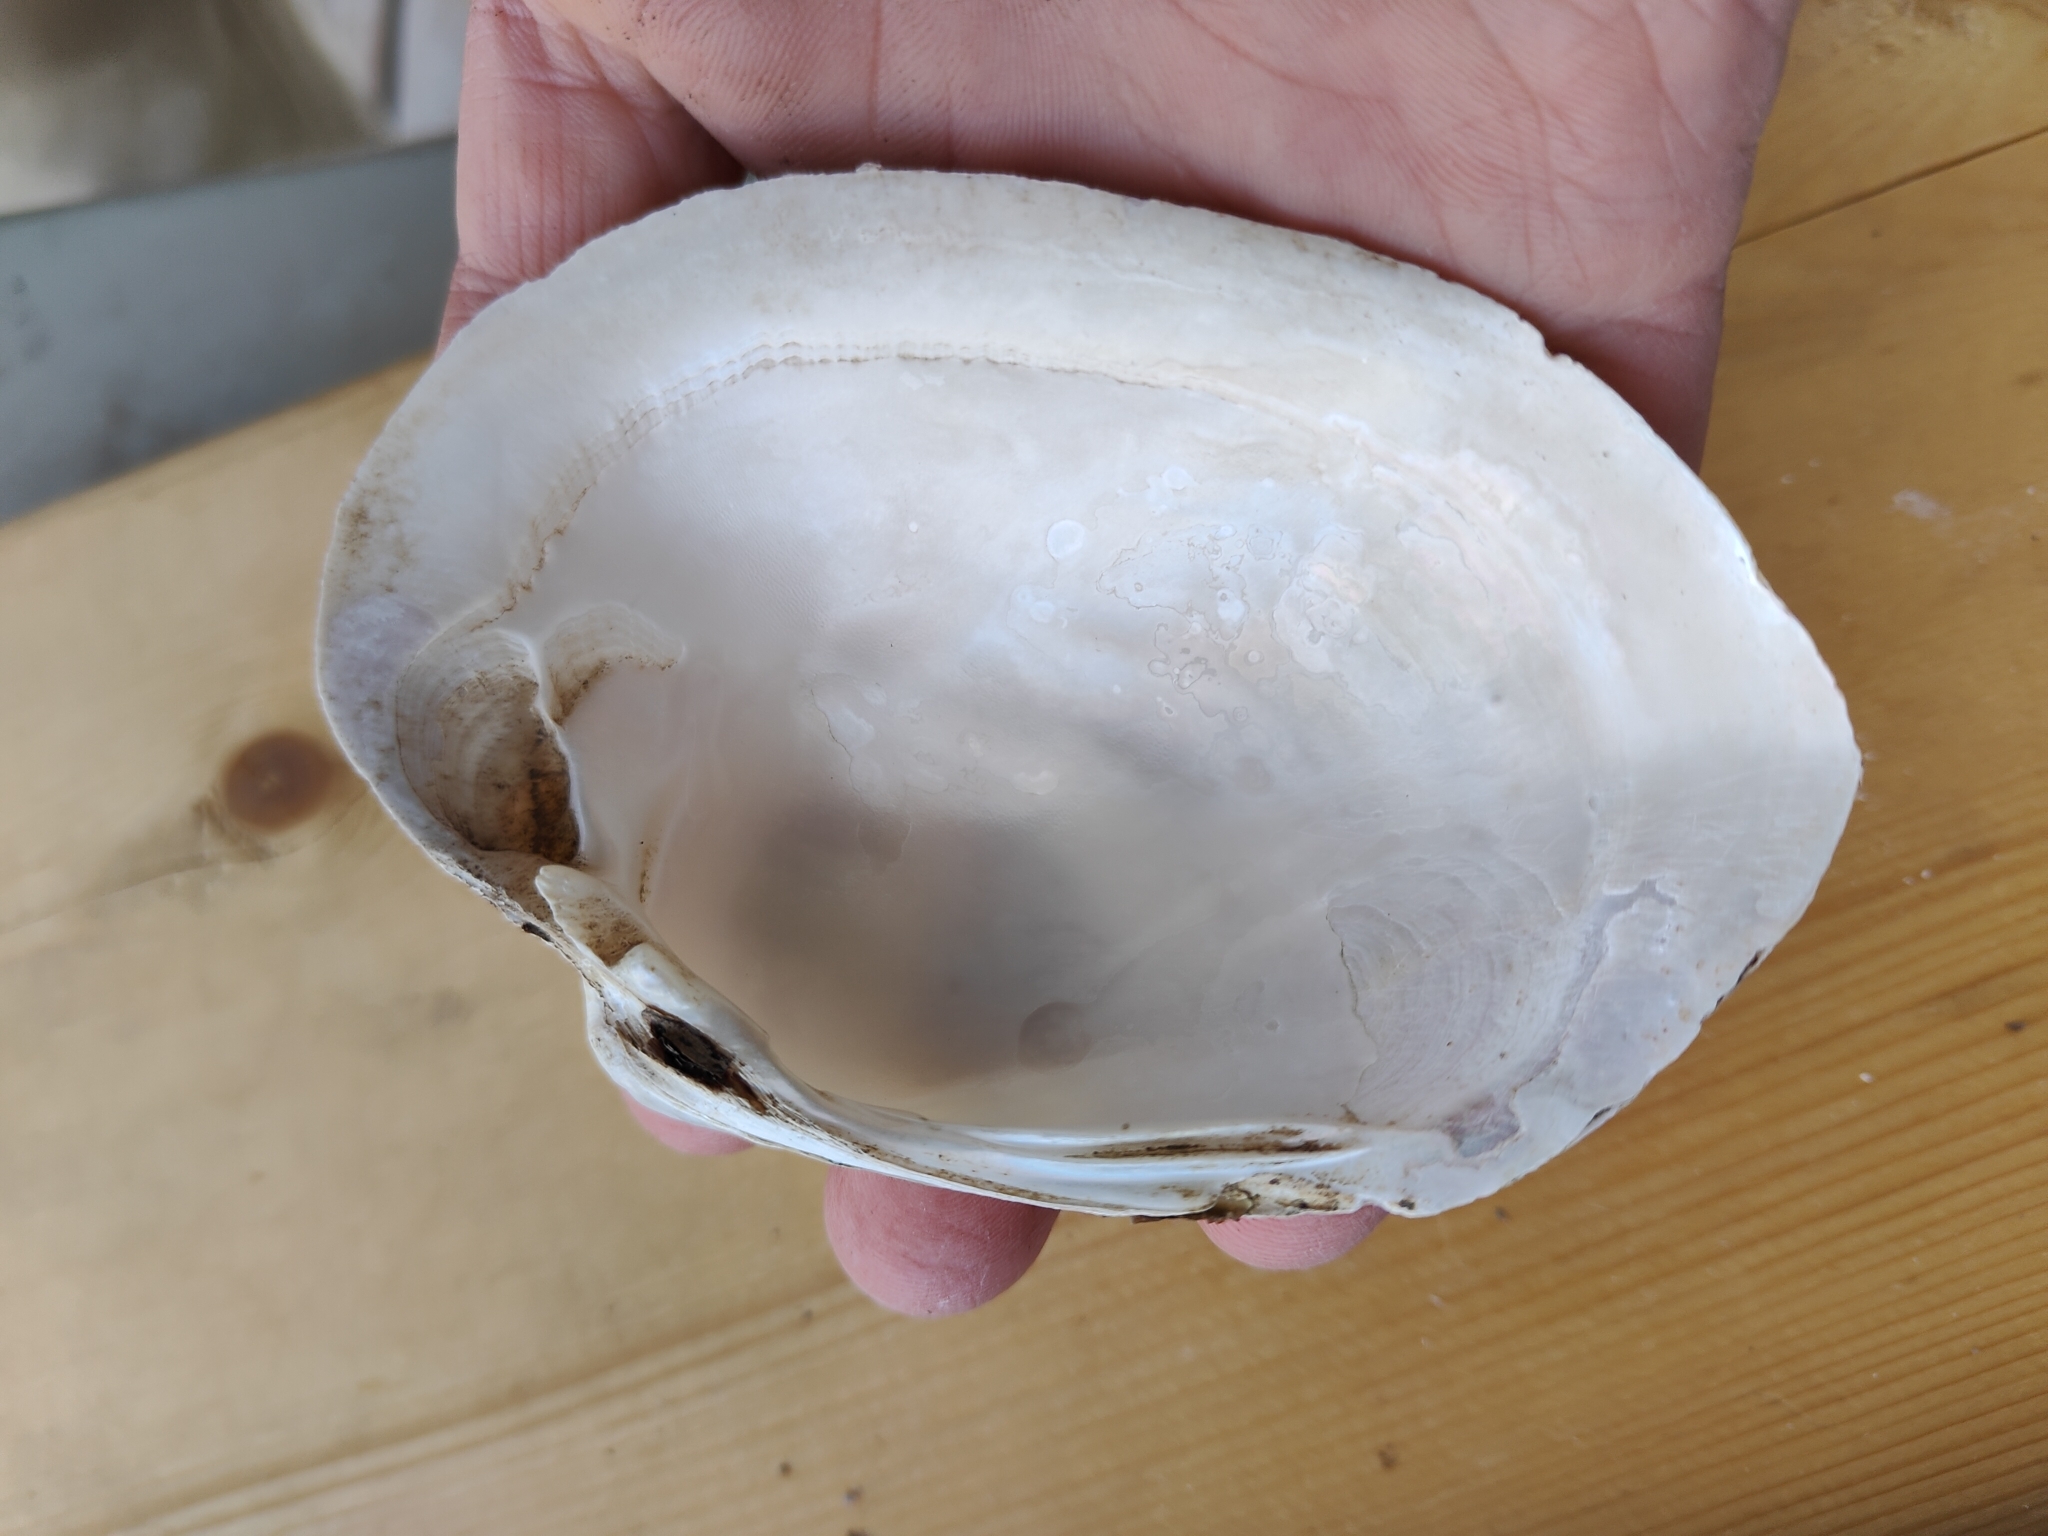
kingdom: Animalia
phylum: Mollusca
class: Bivalvia
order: Unionida
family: Unionidae
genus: Lampsilis
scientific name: Lampsilis cardium
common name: Plain pocketbook
